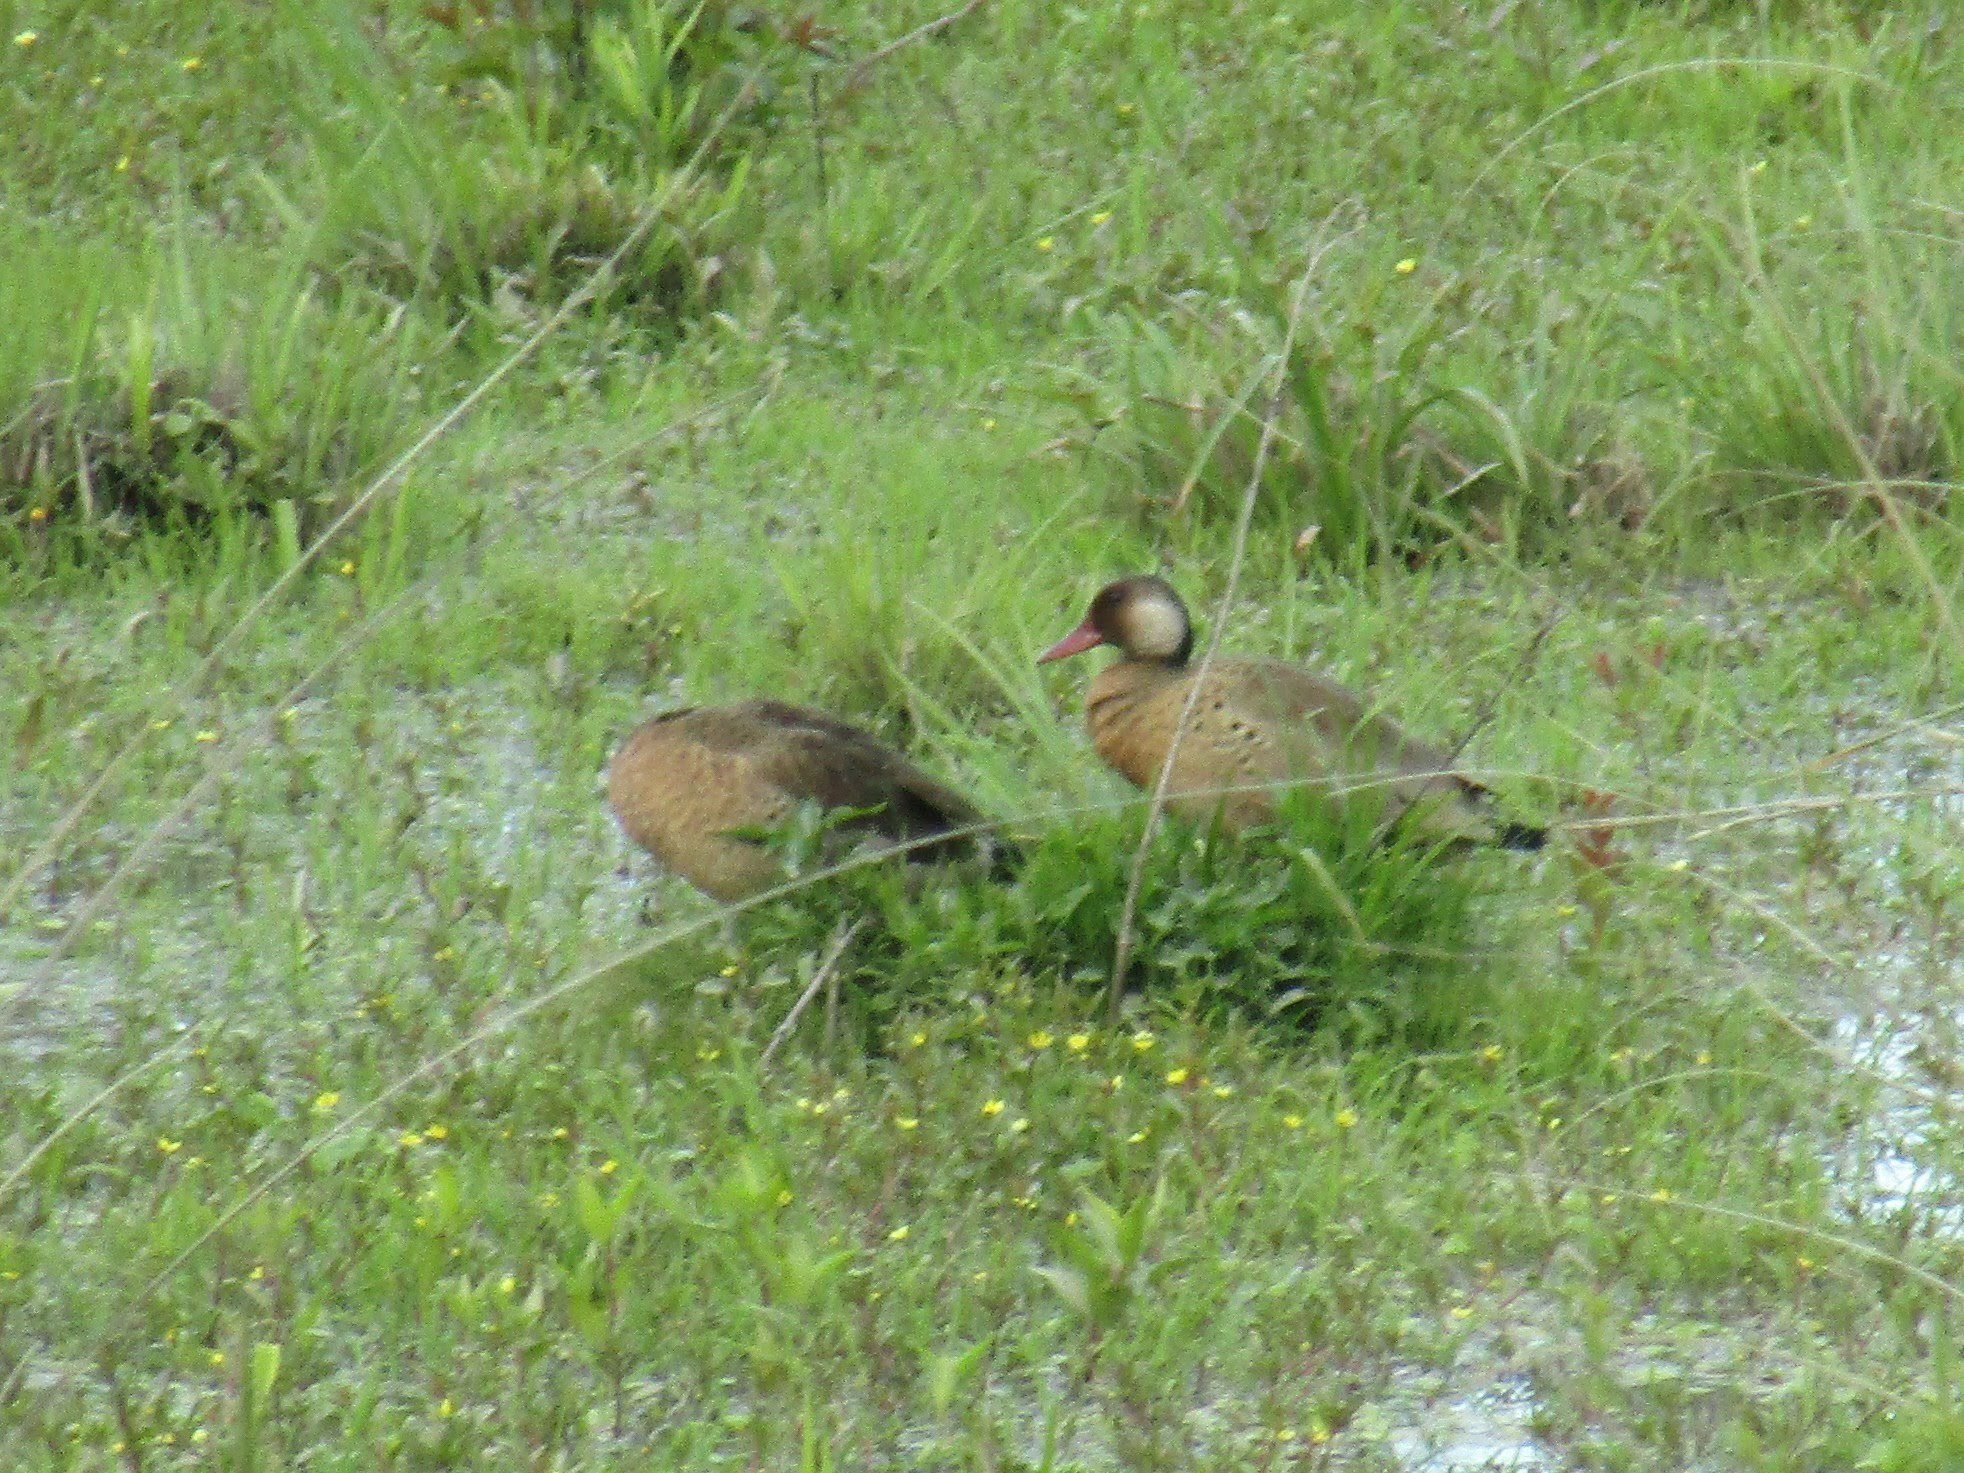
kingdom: Animalia
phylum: Chordata
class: Aves
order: Anseriformes
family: Anatidae
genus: Amazonetta
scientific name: Amazonetta brasiliensis
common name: Brazilian teal
